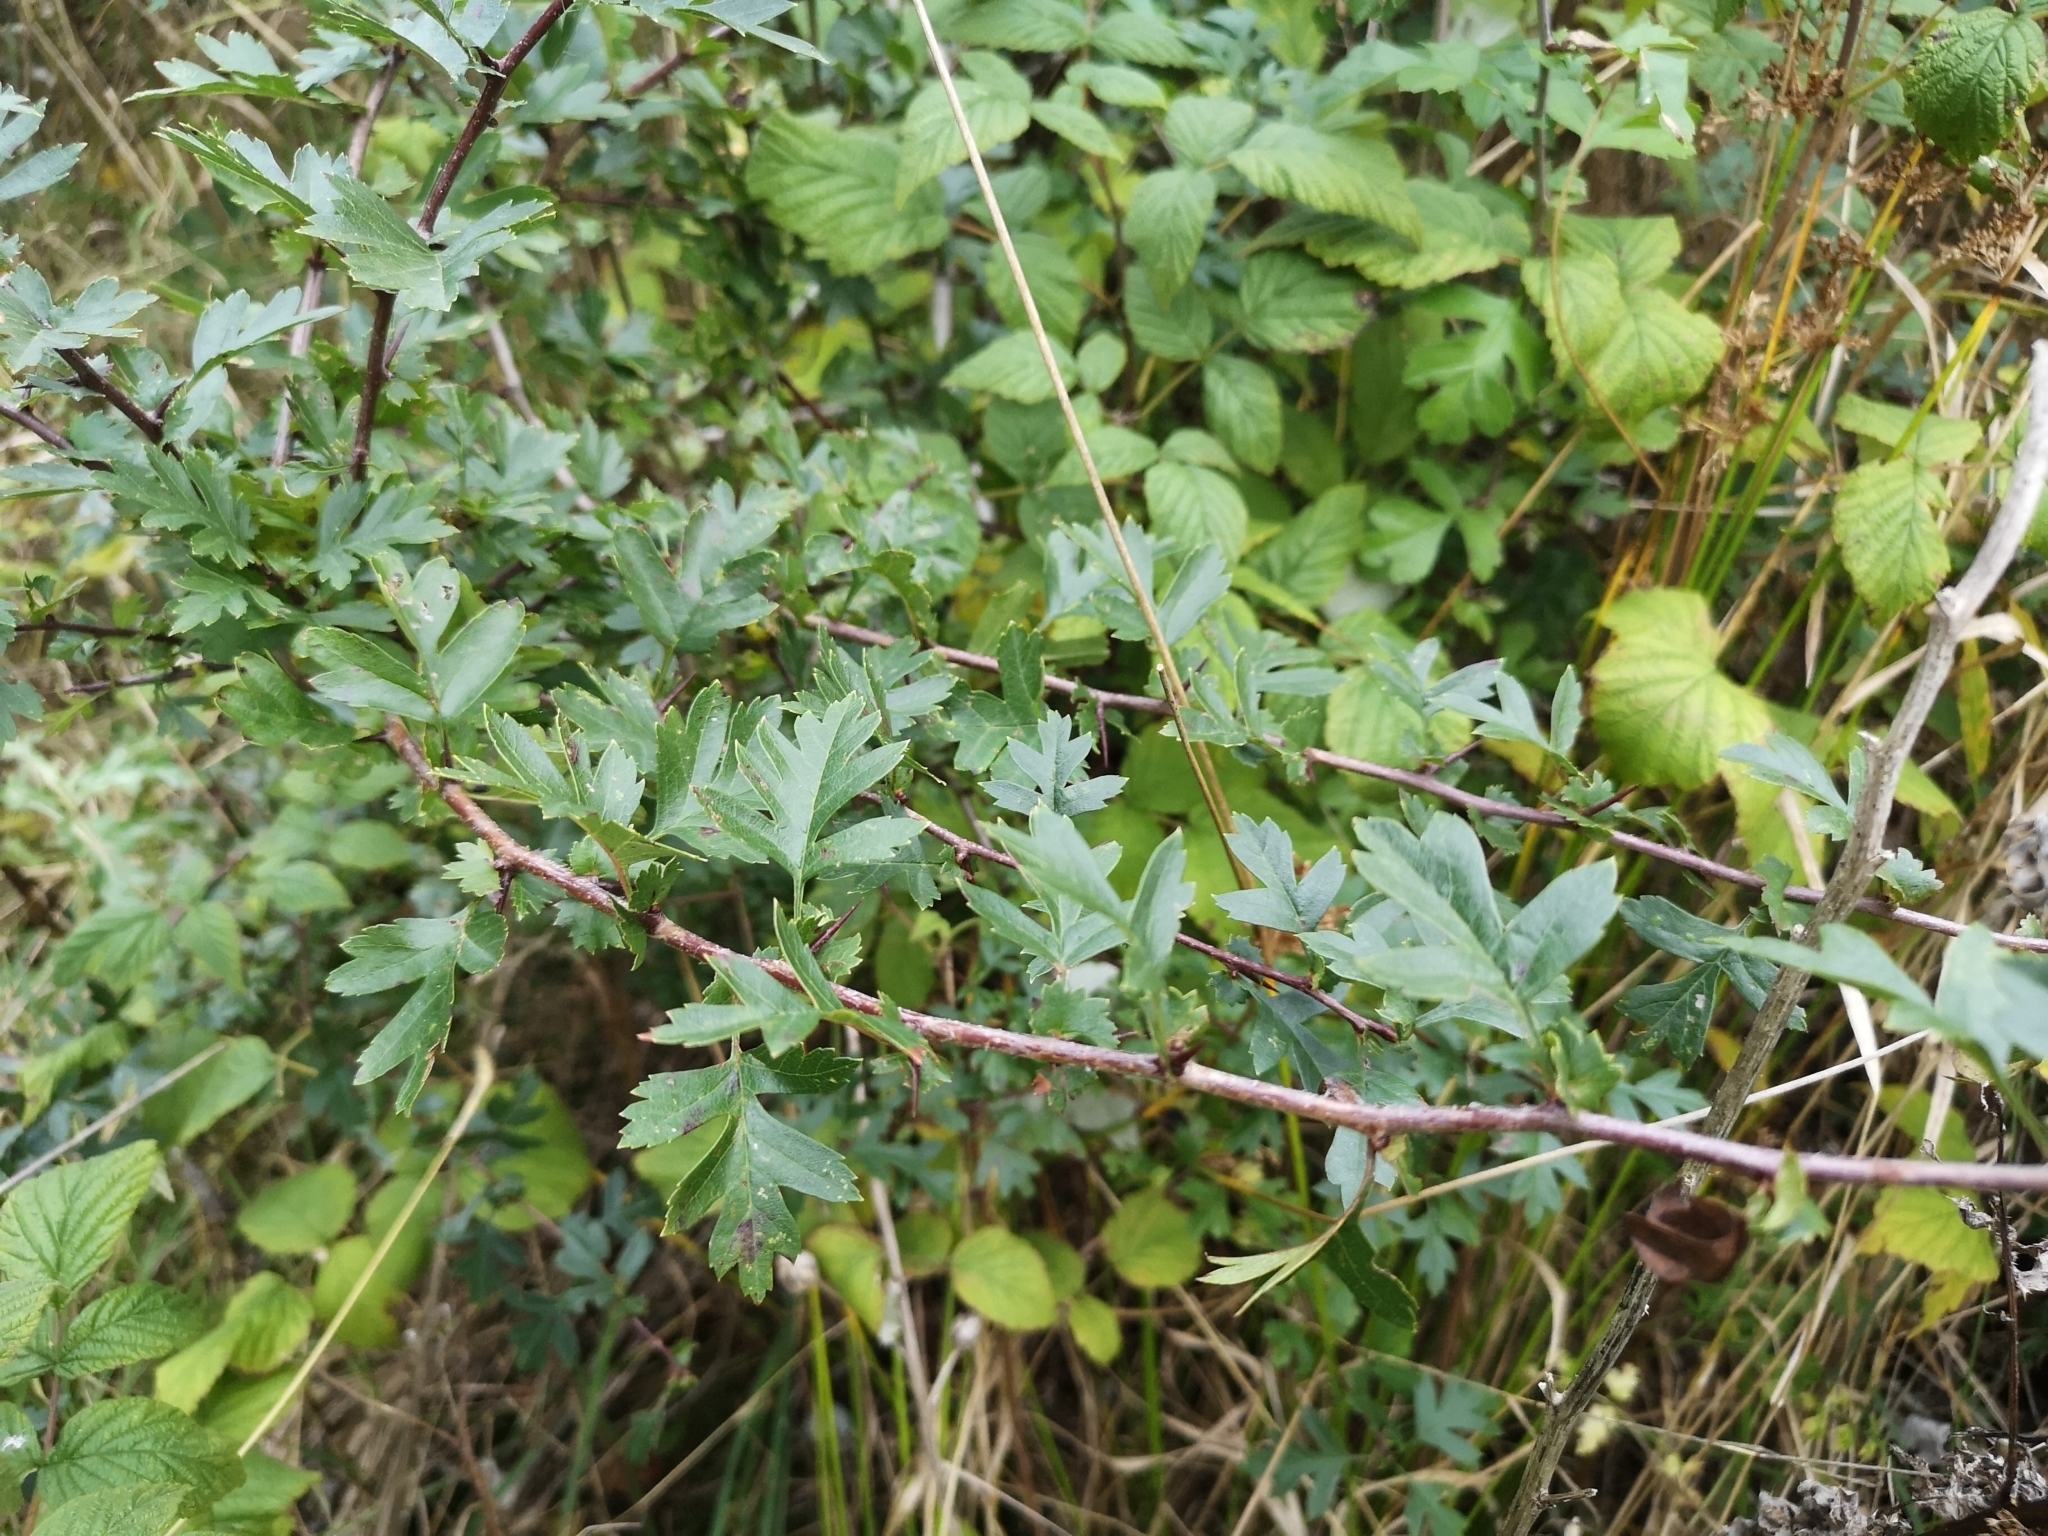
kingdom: Plantae
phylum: Tracheophyta
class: Magnoliopsida
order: Rosales
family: Rosaceae
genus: Crataegus
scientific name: Crataegus monogyna
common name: Hawthorn
